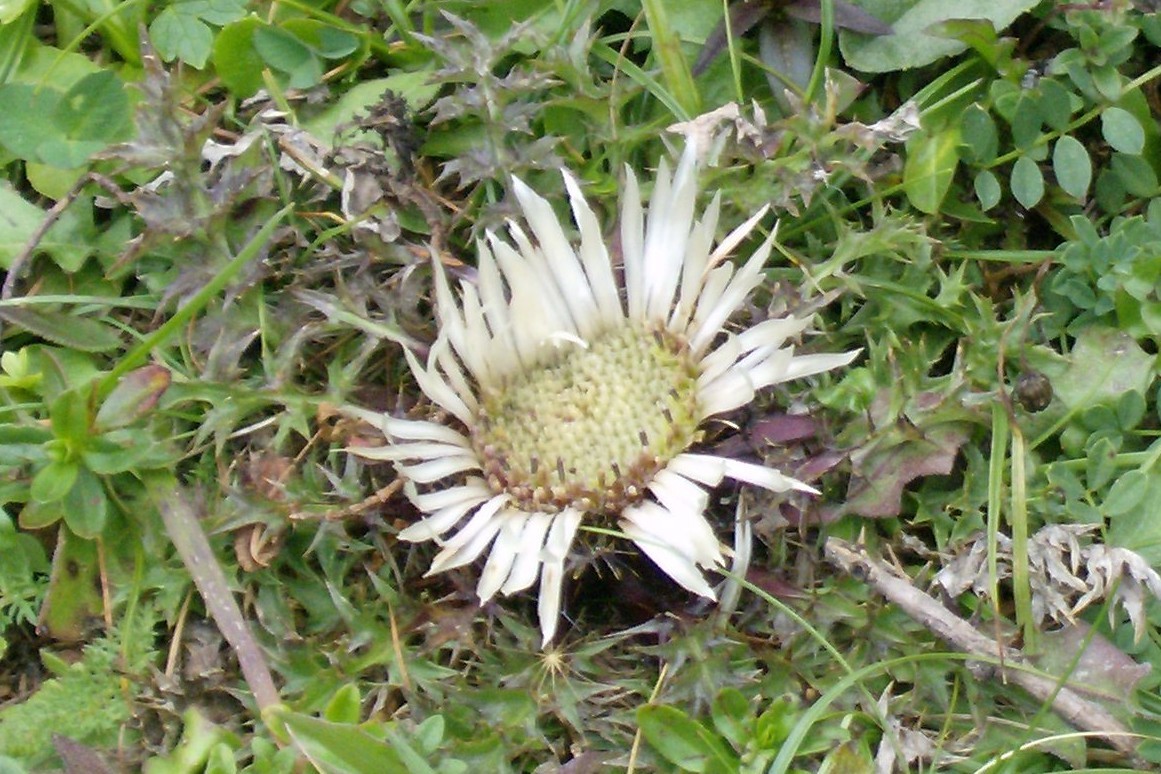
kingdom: Plantae
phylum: Tracheophyta
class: Magnoliopsida
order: Asterales
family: Asteraceae
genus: Carlina
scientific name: Carlina acaulis
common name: Stemless carline thistle
